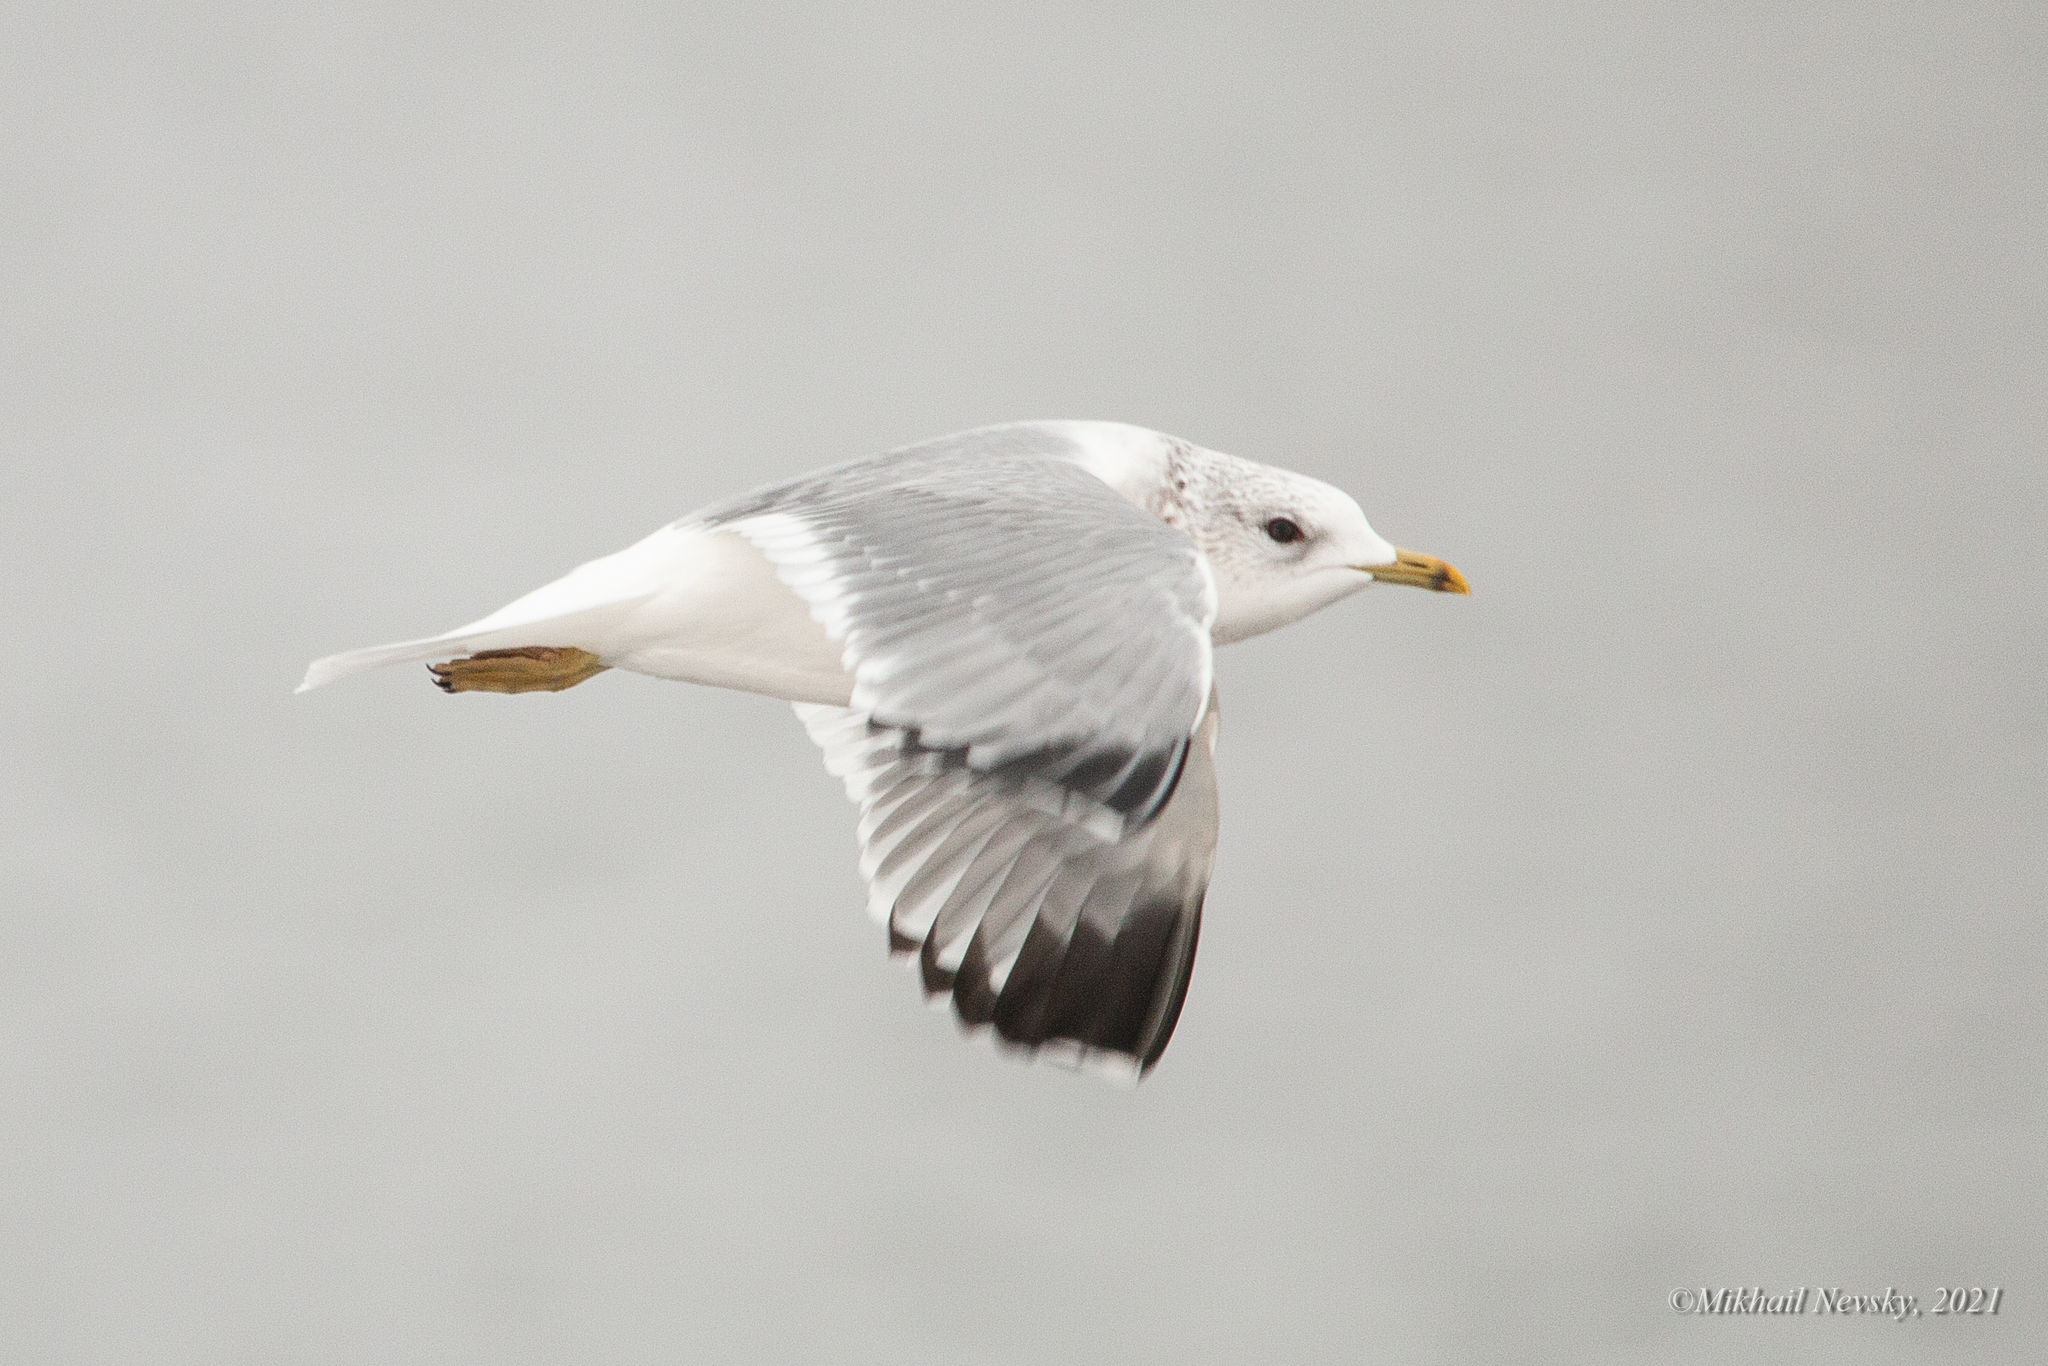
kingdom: Animalia
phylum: Chordata
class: Aves
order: Charadriiformes
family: Laridae
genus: Larus
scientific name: Larus canus
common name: Mew gull
